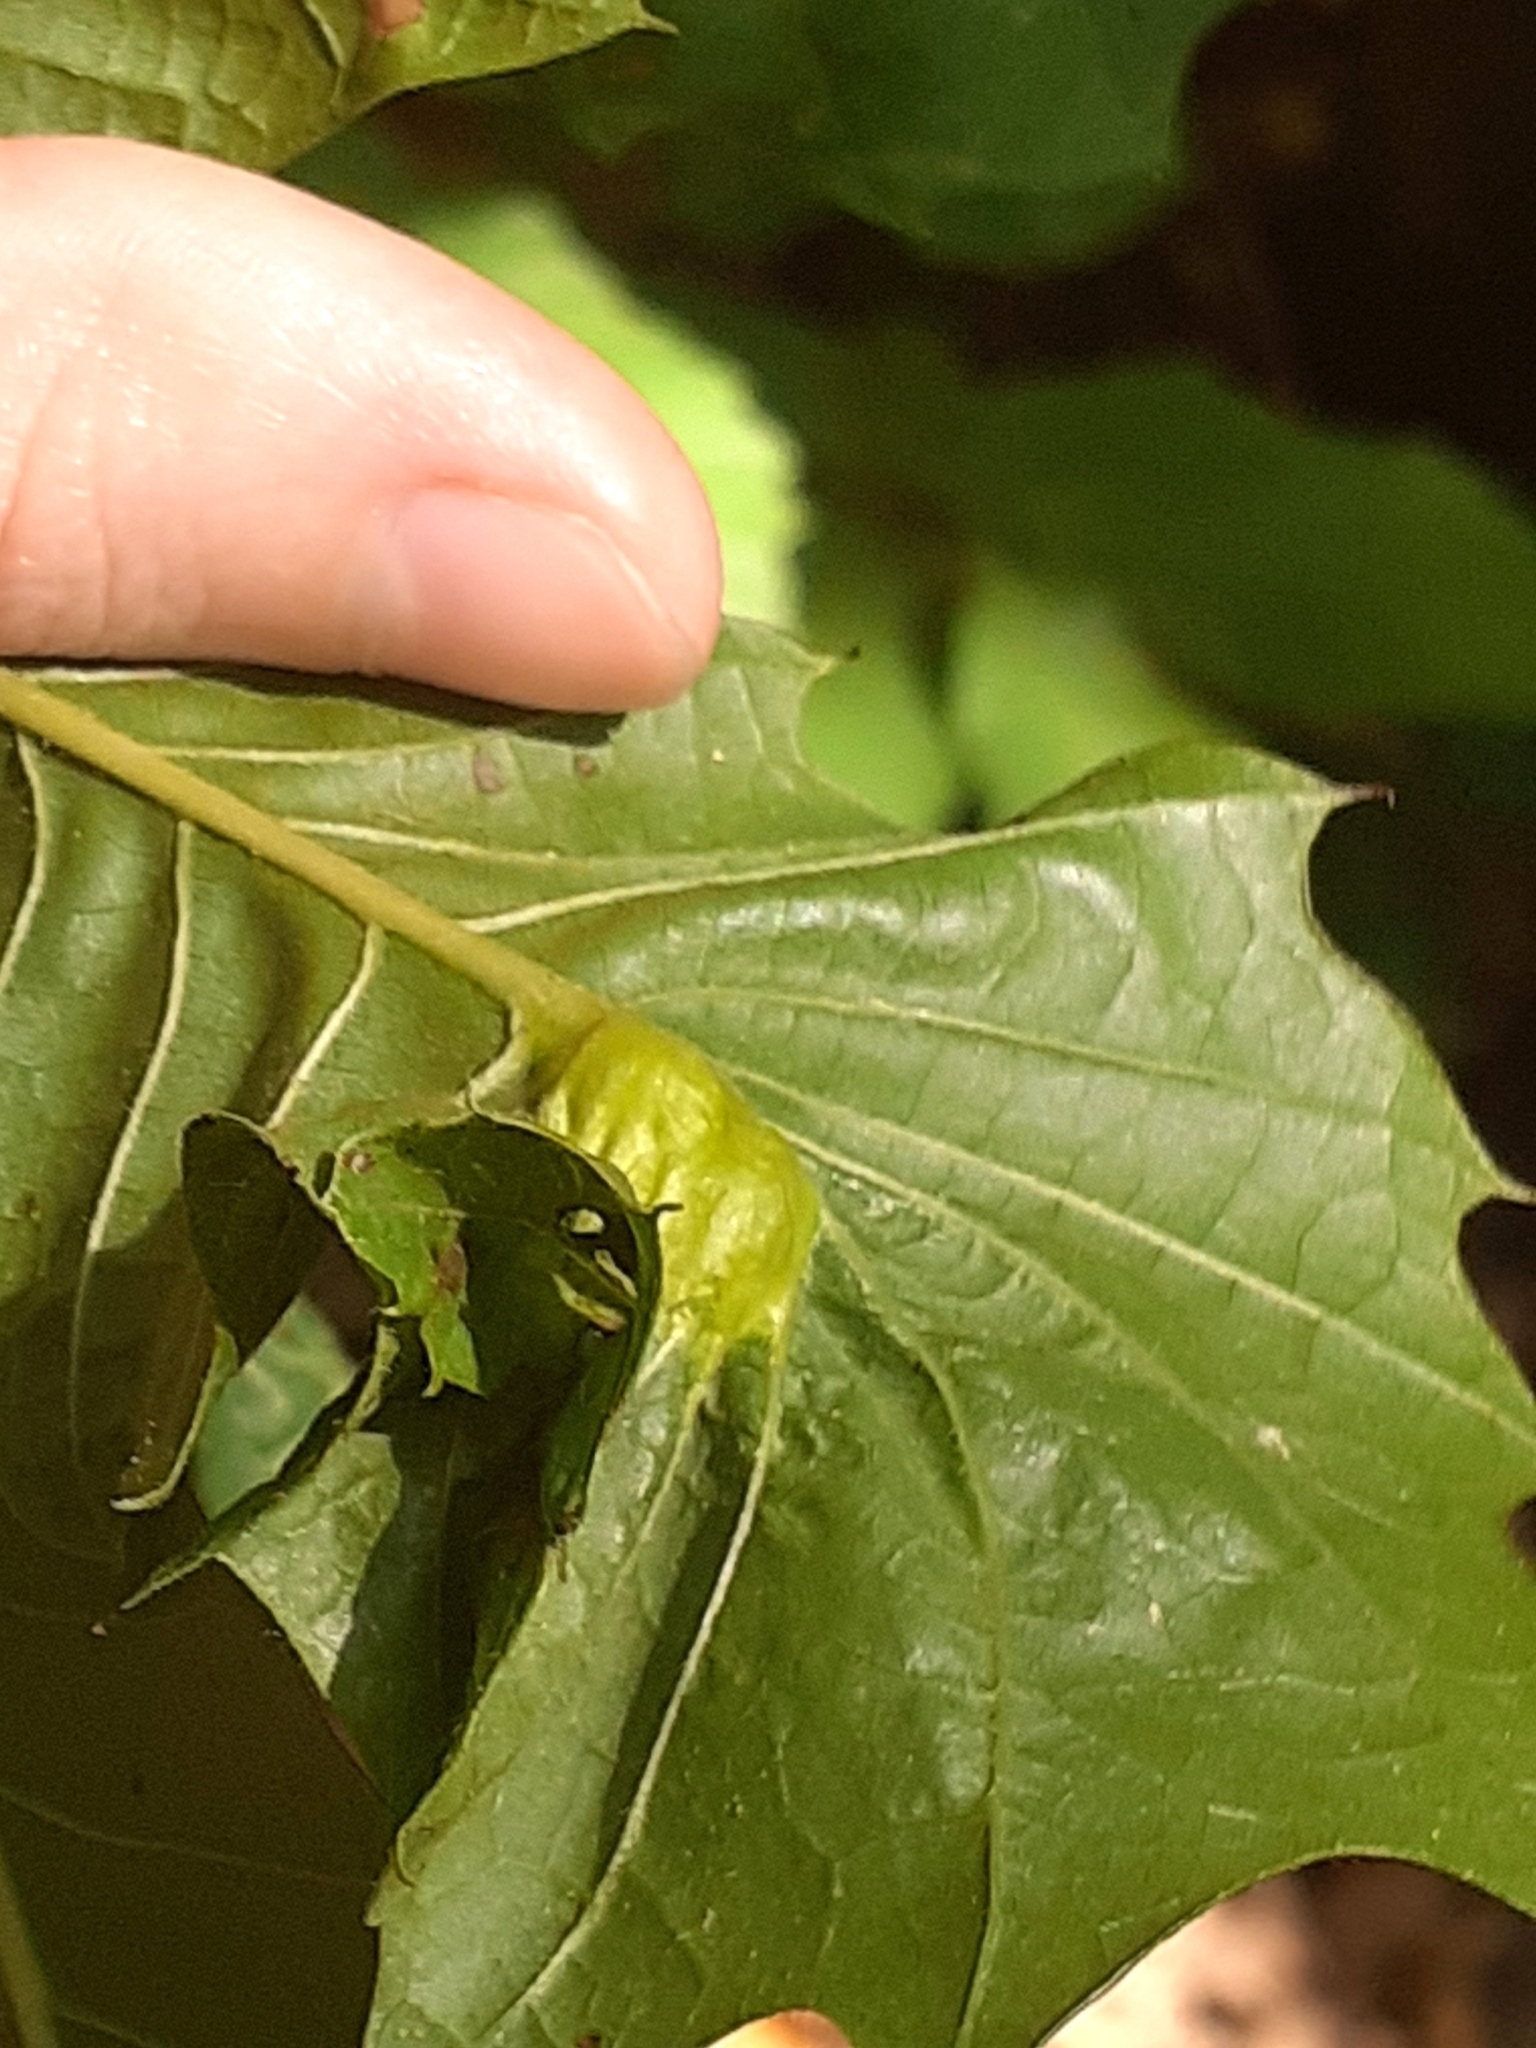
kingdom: Animalia
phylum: Arthropoda
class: Insecta
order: Hymenoptera
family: Cynipidae
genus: Dryocosmus
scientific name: Dryocosmus kuriphilus
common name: Asian chestnut gall wasp
